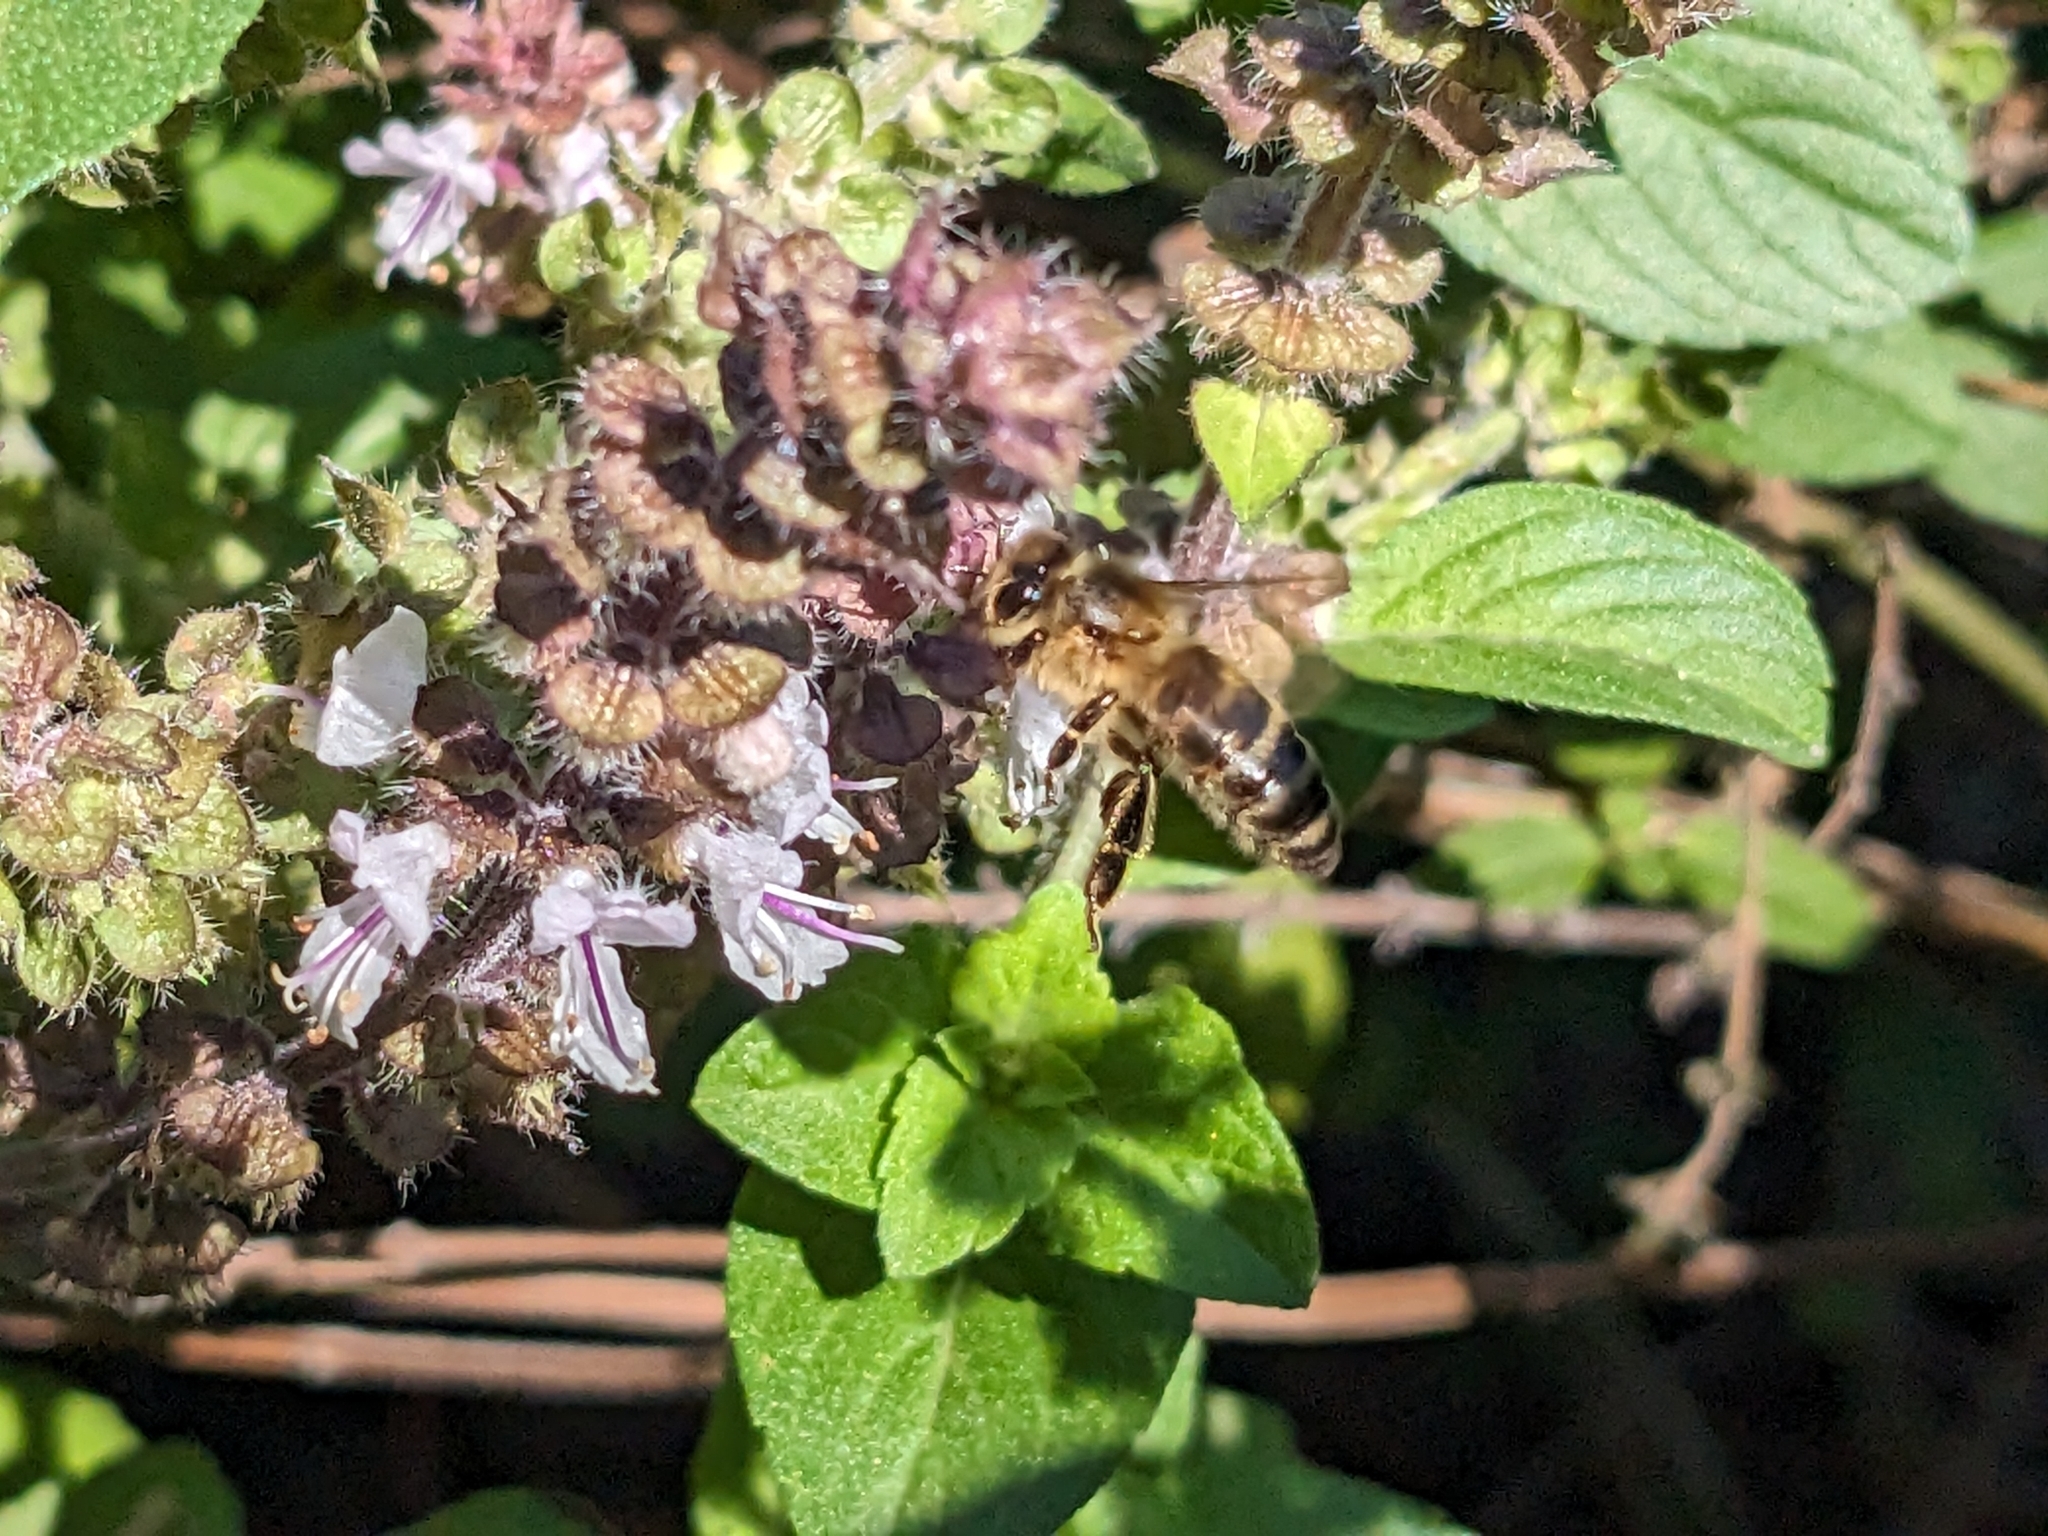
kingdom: Animalia
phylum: Arthropoda
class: Insecta
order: Hymenoptera
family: Apidae
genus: Apis
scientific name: Apis mellifera
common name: Honey bee
